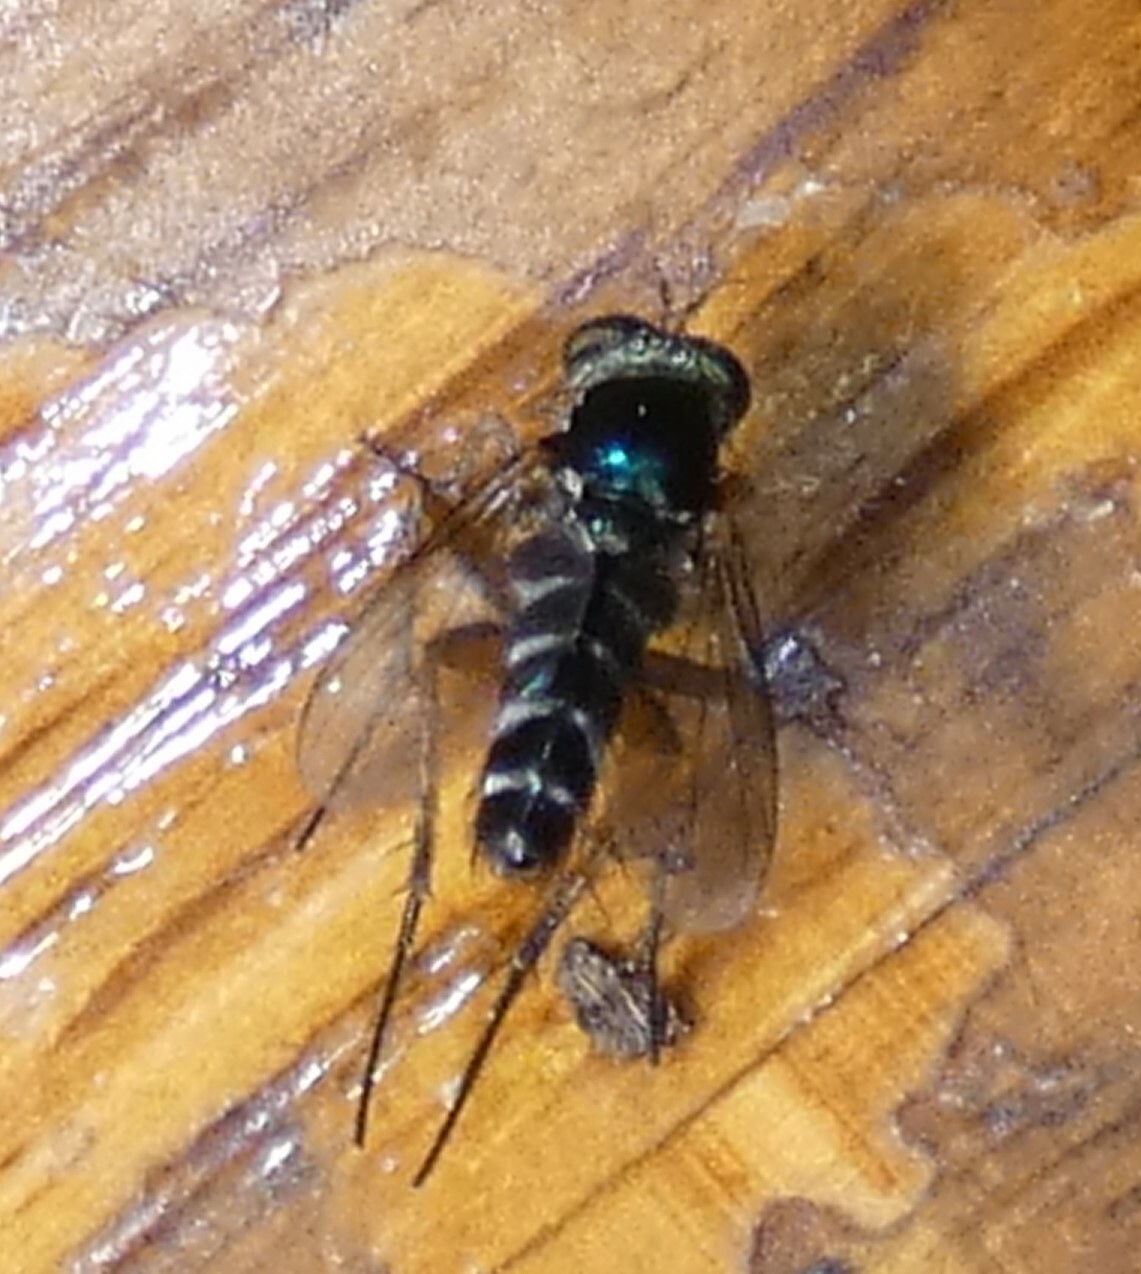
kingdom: Animalia
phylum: Arthropoda
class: Insecta
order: Diptera
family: Dolichopodidae
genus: Keirosoma
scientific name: Keirosoma slossonae
